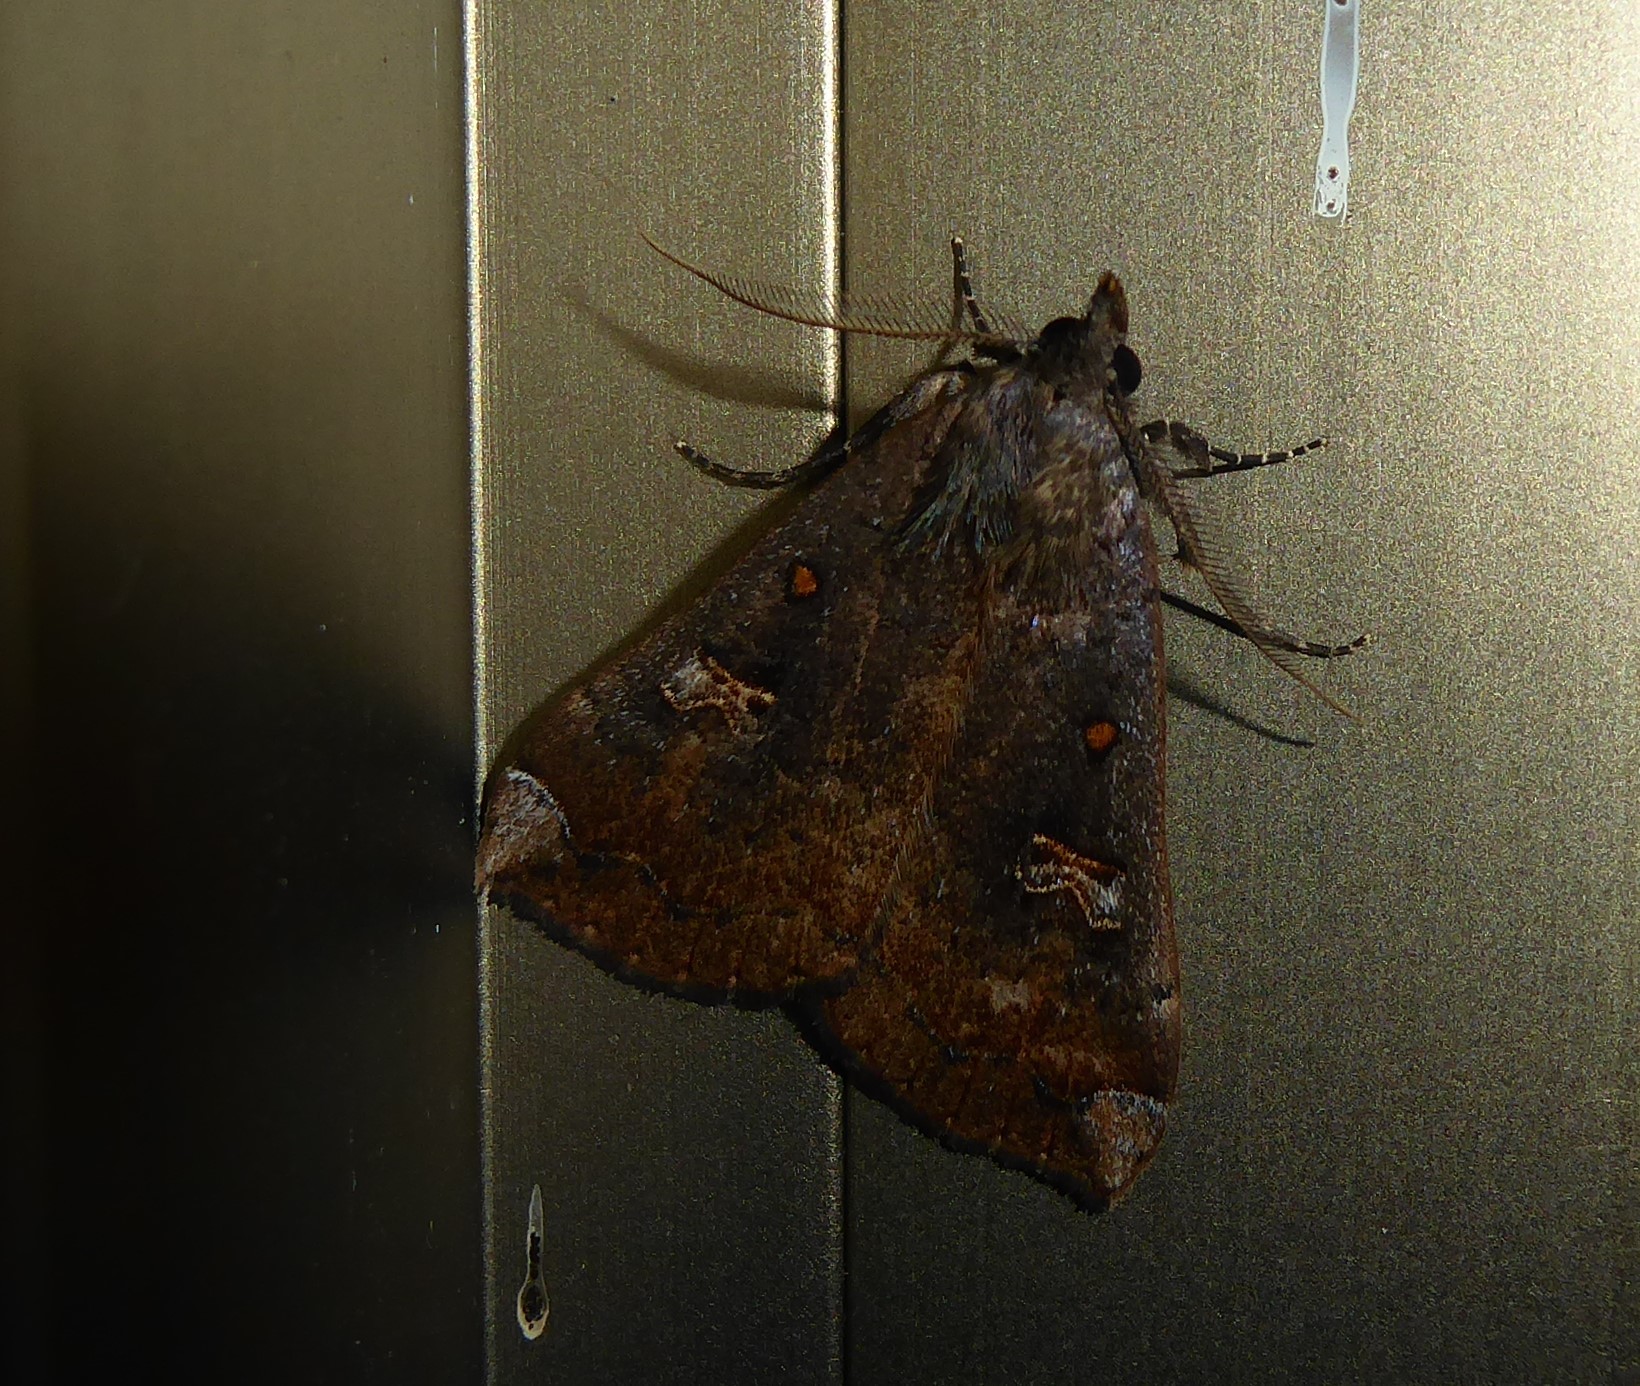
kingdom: Animalia
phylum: Arthropoda
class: Insecta
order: Lepidoptera
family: Erebidae
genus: Rhapsa
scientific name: Rhapsa scotosialis
